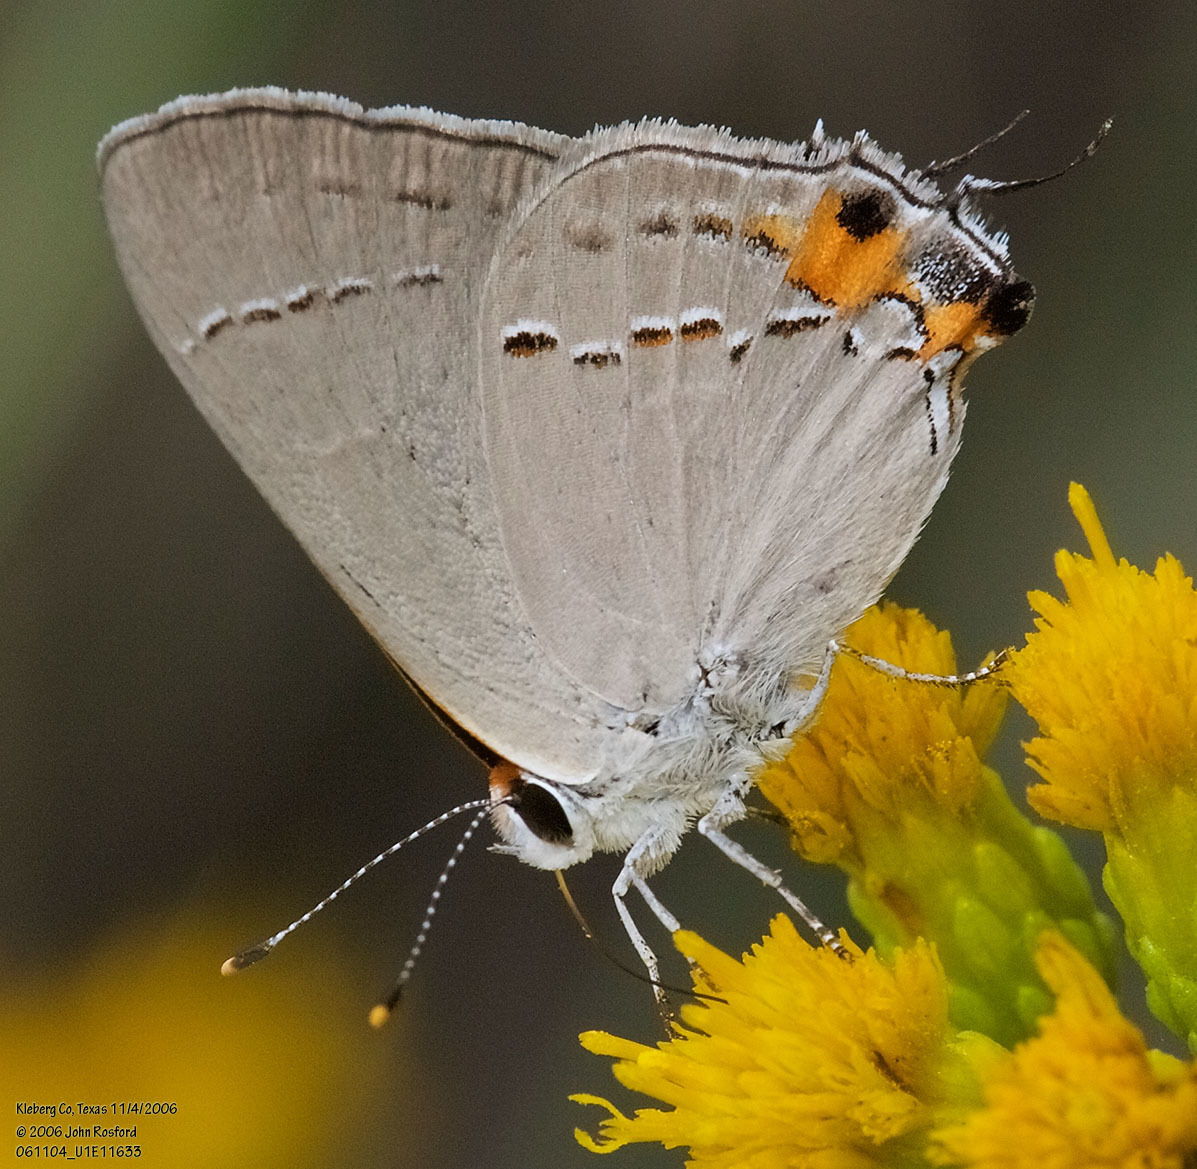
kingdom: Animalia
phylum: Arthropoda
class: Insecta
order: Lepidoptera
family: Lycaenidae
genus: Strymon
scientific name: Strymon melinus
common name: Gray hairstreak
